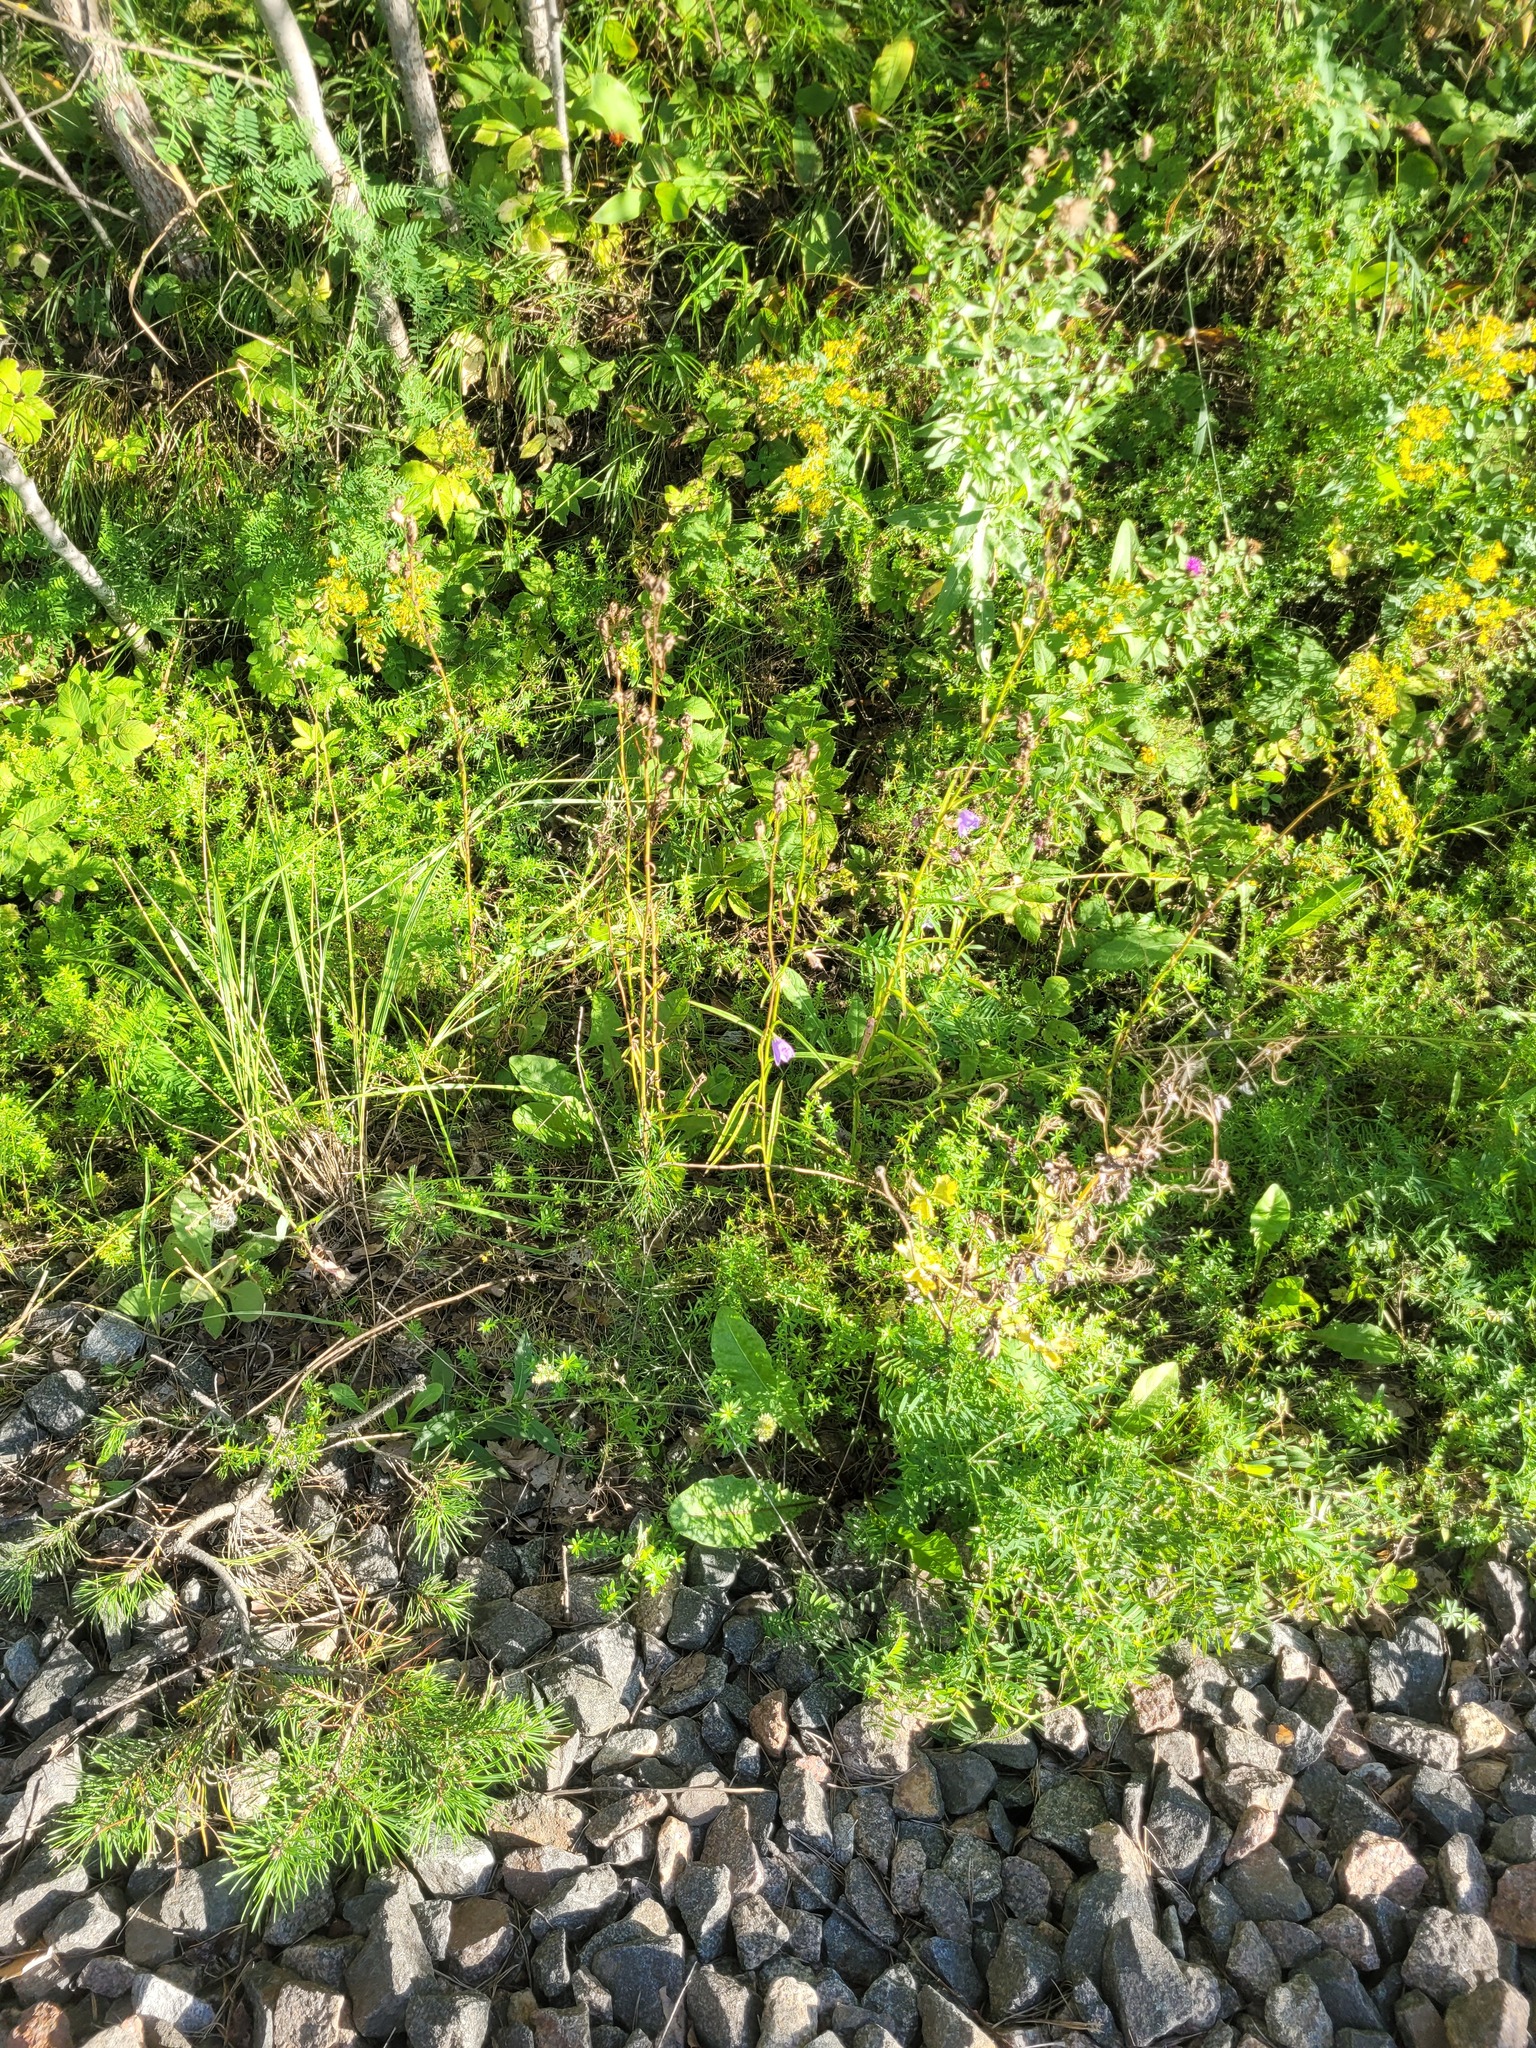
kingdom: Plantae
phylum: Tracheophyta
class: Magnoliopsida
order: Asterales
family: Campanulaceae
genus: Campanula
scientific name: Campanula persicifolia
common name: Peach-leaved bellflower
